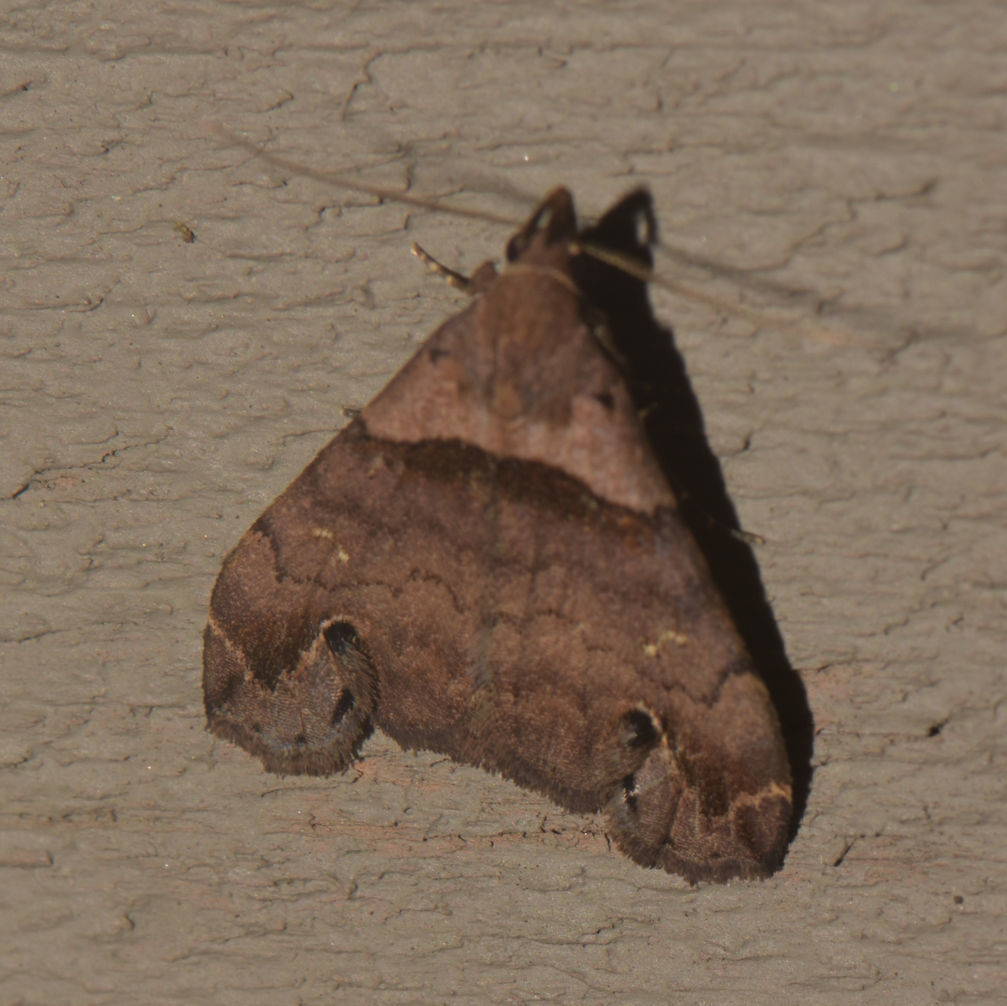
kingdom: Animalia
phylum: Arthropoda
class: Insecta
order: Lepidoptera
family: Erebidae
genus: Lascoria
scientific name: Lascoria ambigualis
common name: Ambiguous moth
